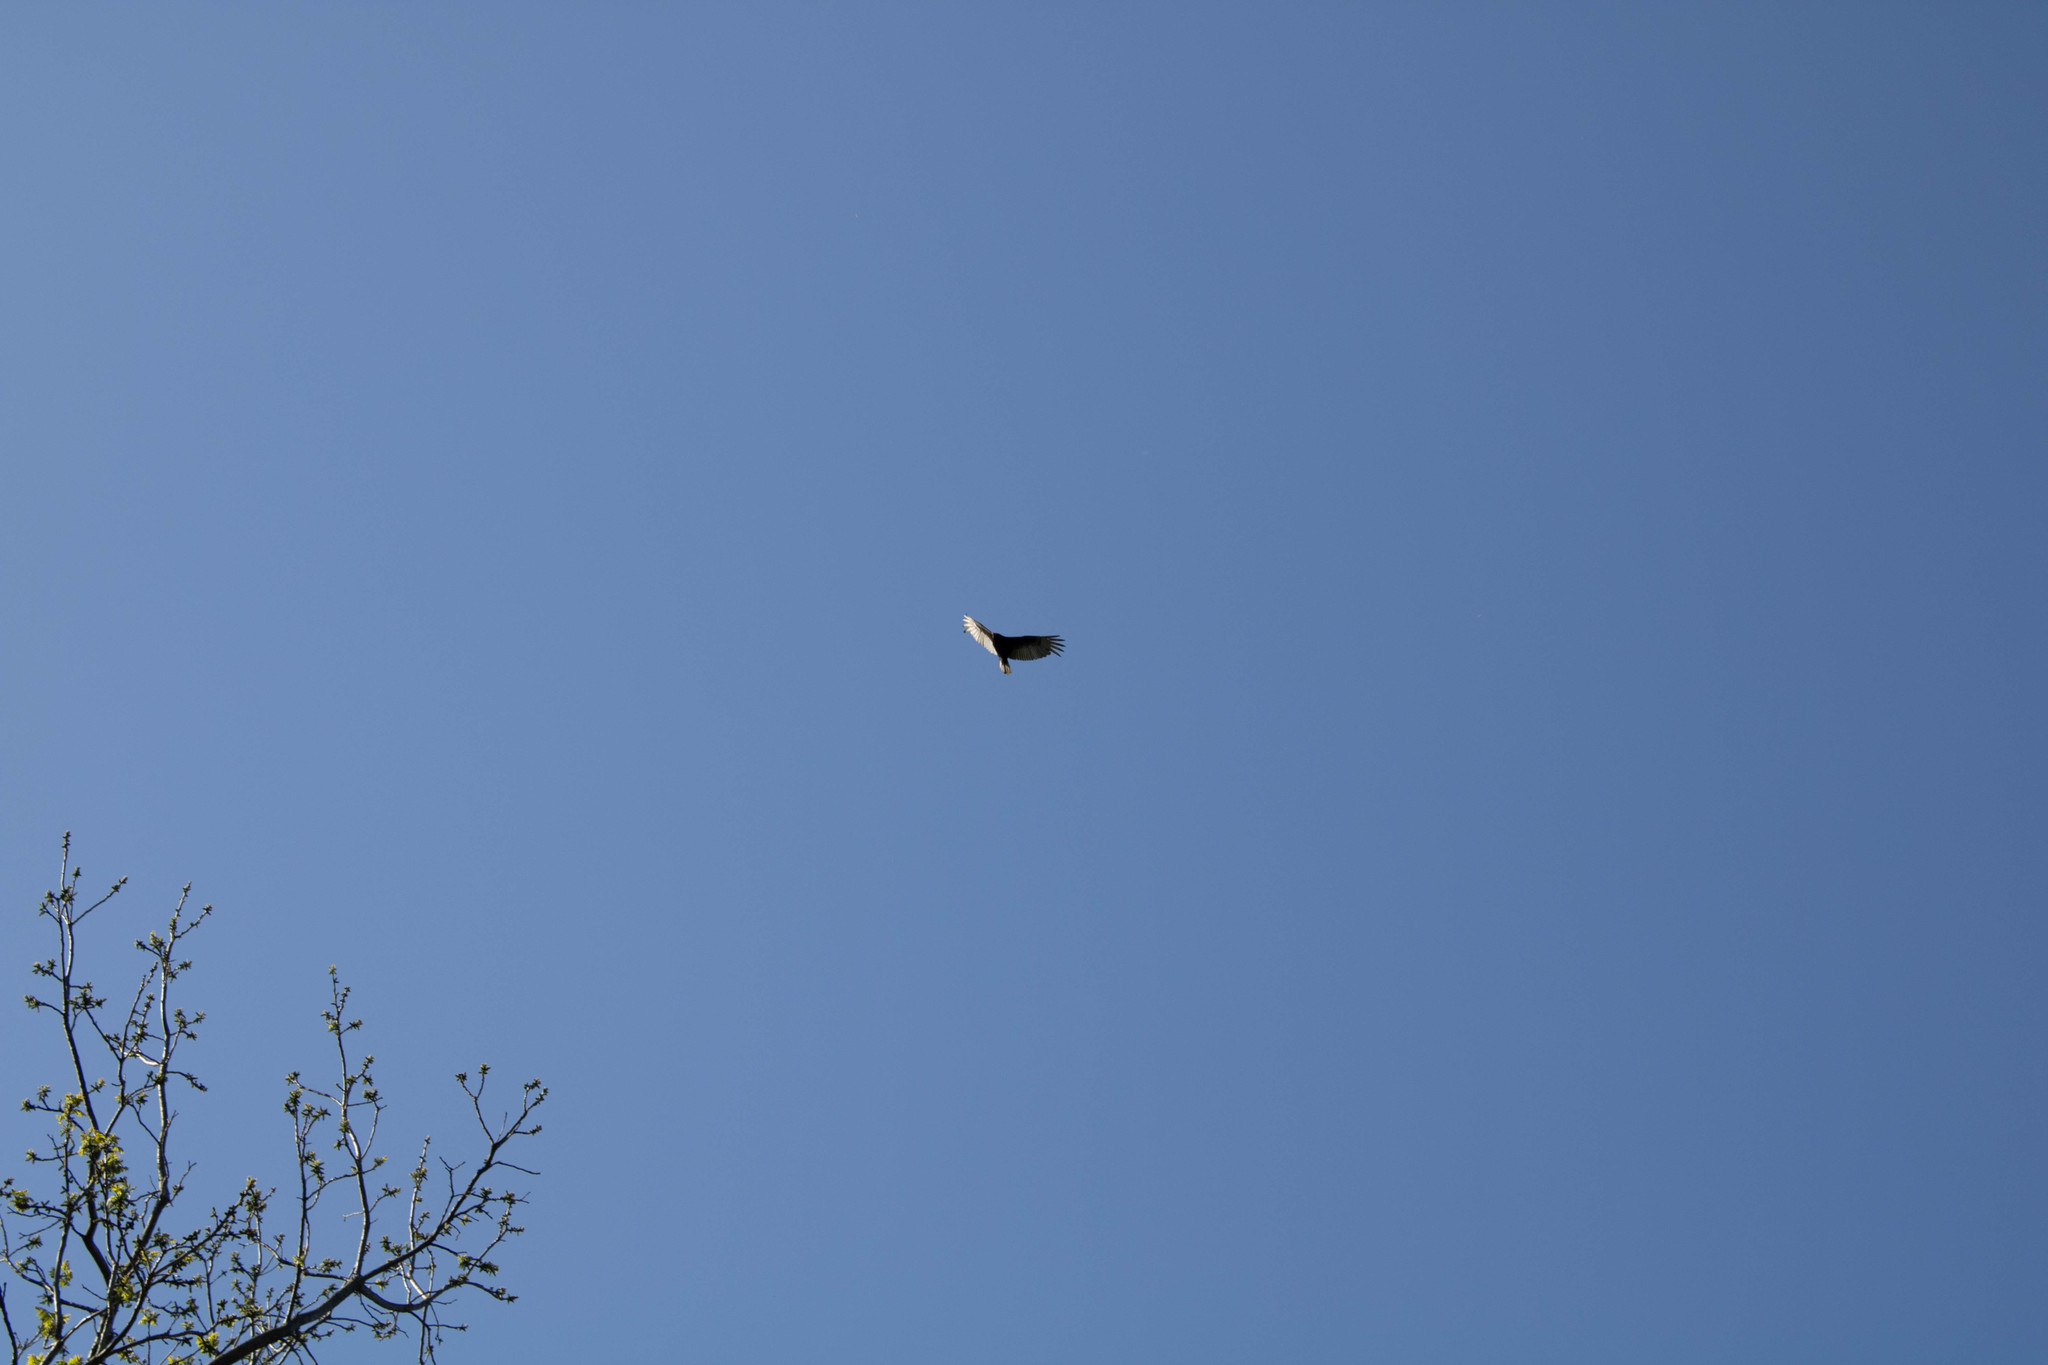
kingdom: Animalia
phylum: Chordata
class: Aves
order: Accipitriformes
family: Cathartidae
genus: Cathartes
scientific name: Cathartes aura
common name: Turkey vulture
